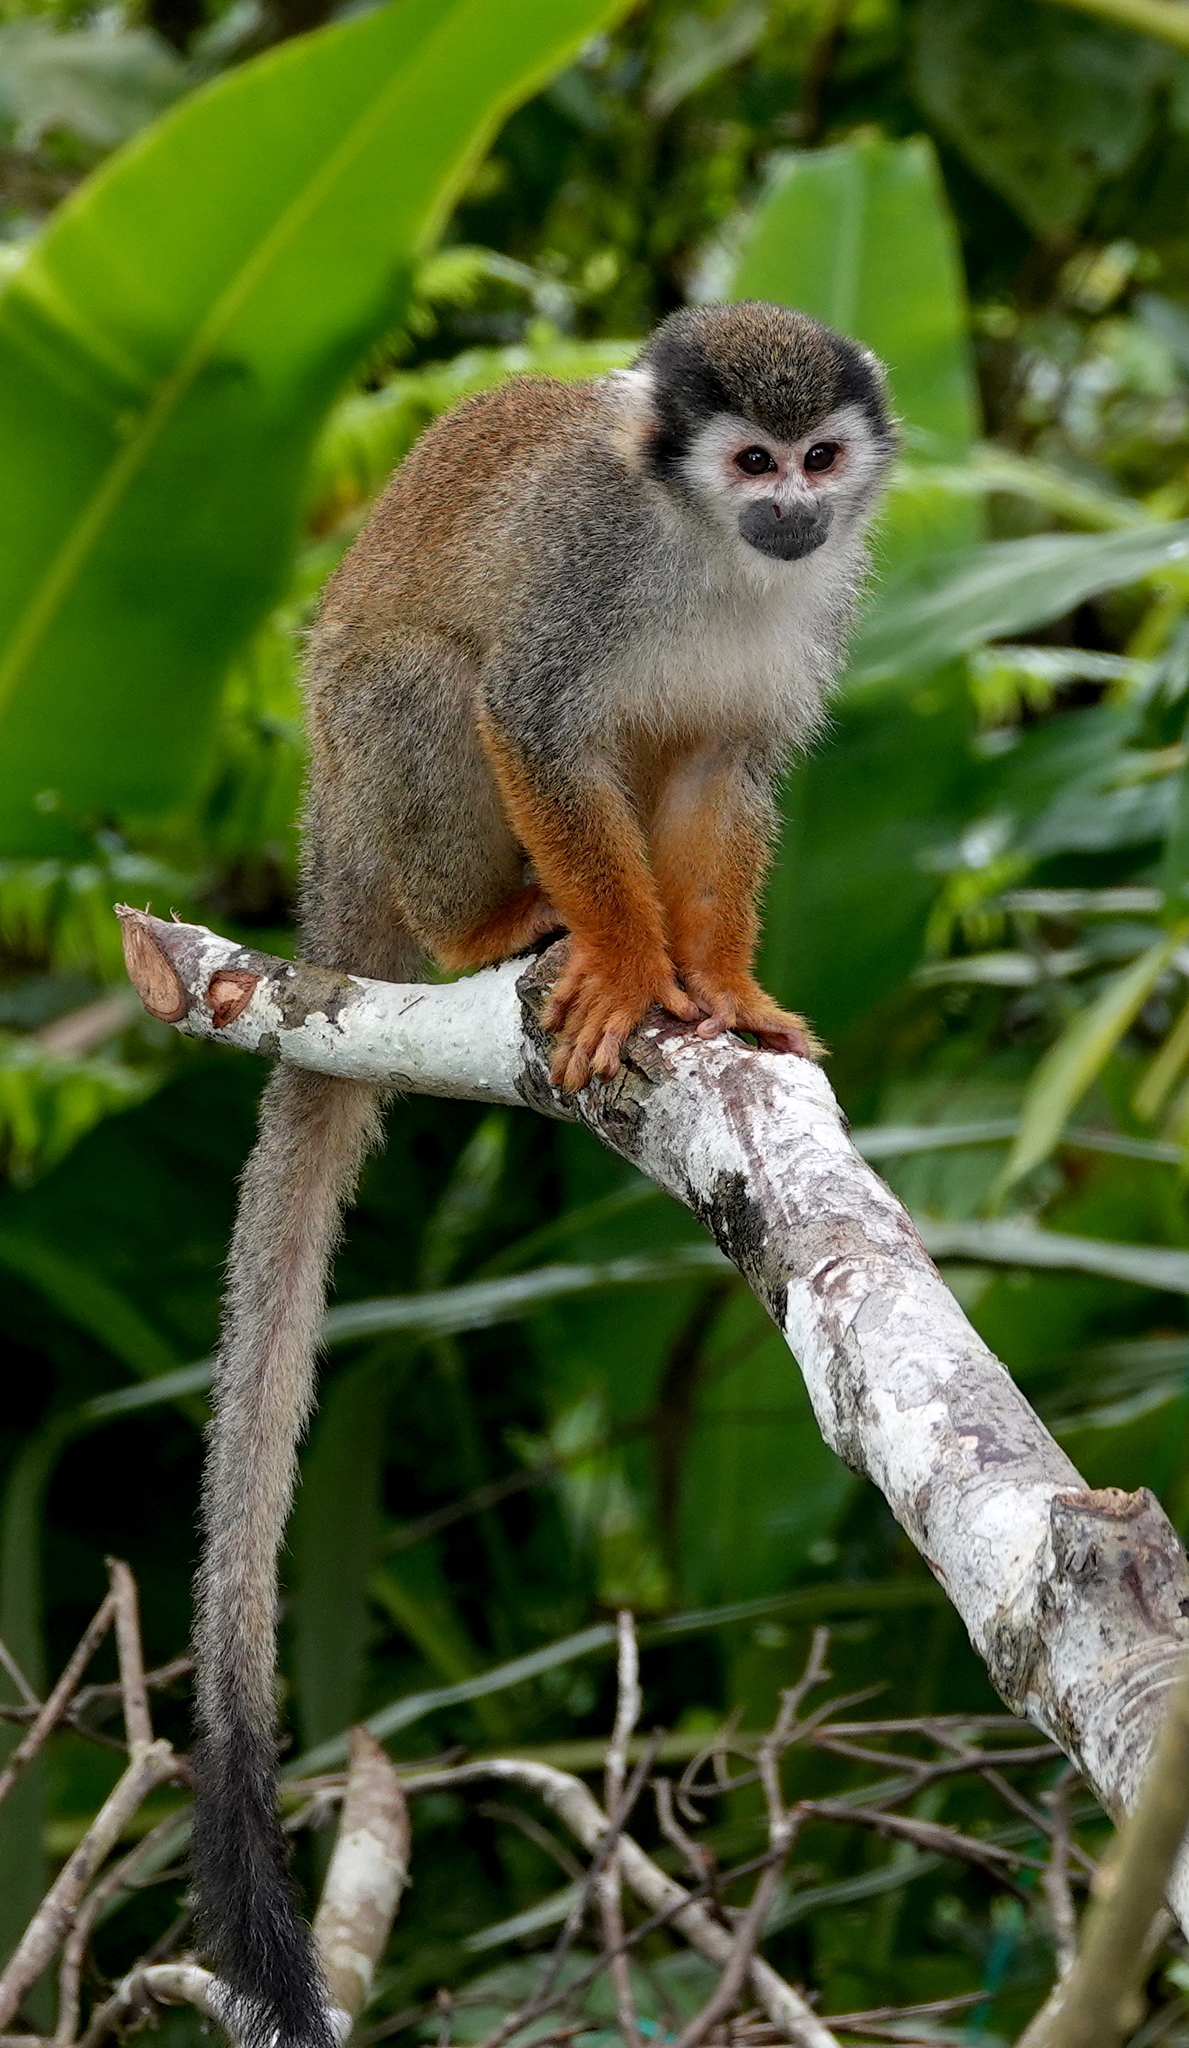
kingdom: Animalia
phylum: Chordata
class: Mammalia
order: Primates
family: Cebidae
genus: Saimiri
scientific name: Saimiri cassiquiarensis
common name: Humboldt’s squirrel monkey
